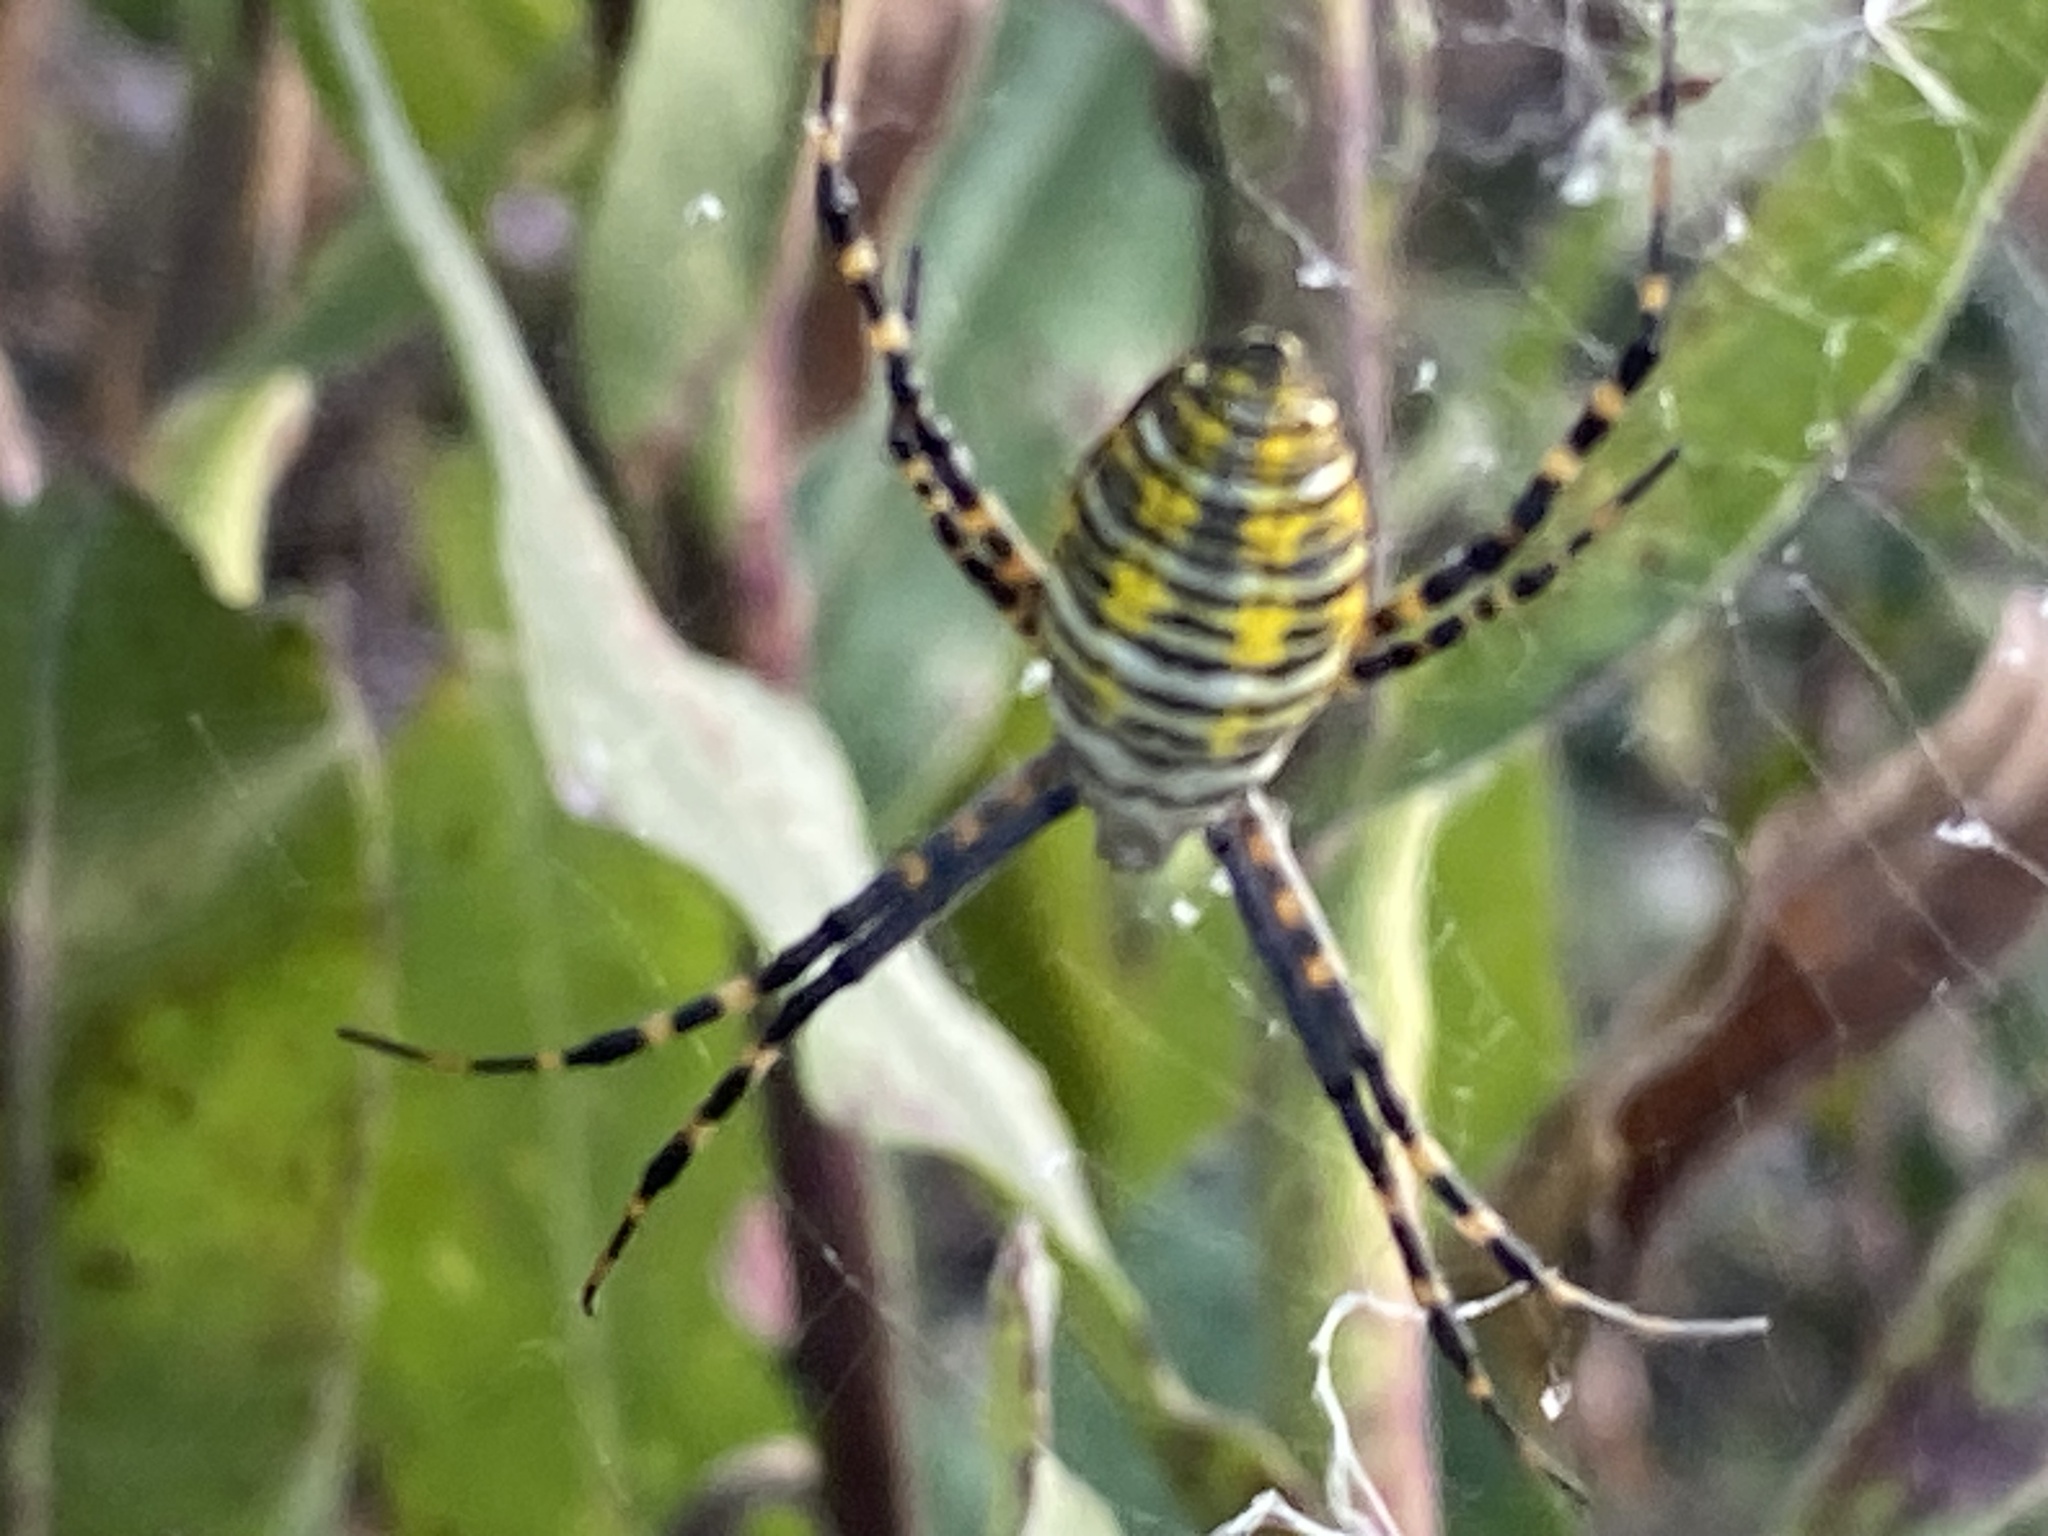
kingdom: Animalia
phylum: Arthropoda
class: Arachnida
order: Araneae
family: Araneidae
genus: Argiope
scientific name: Argiope trifasciata
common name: Banded garden spider
